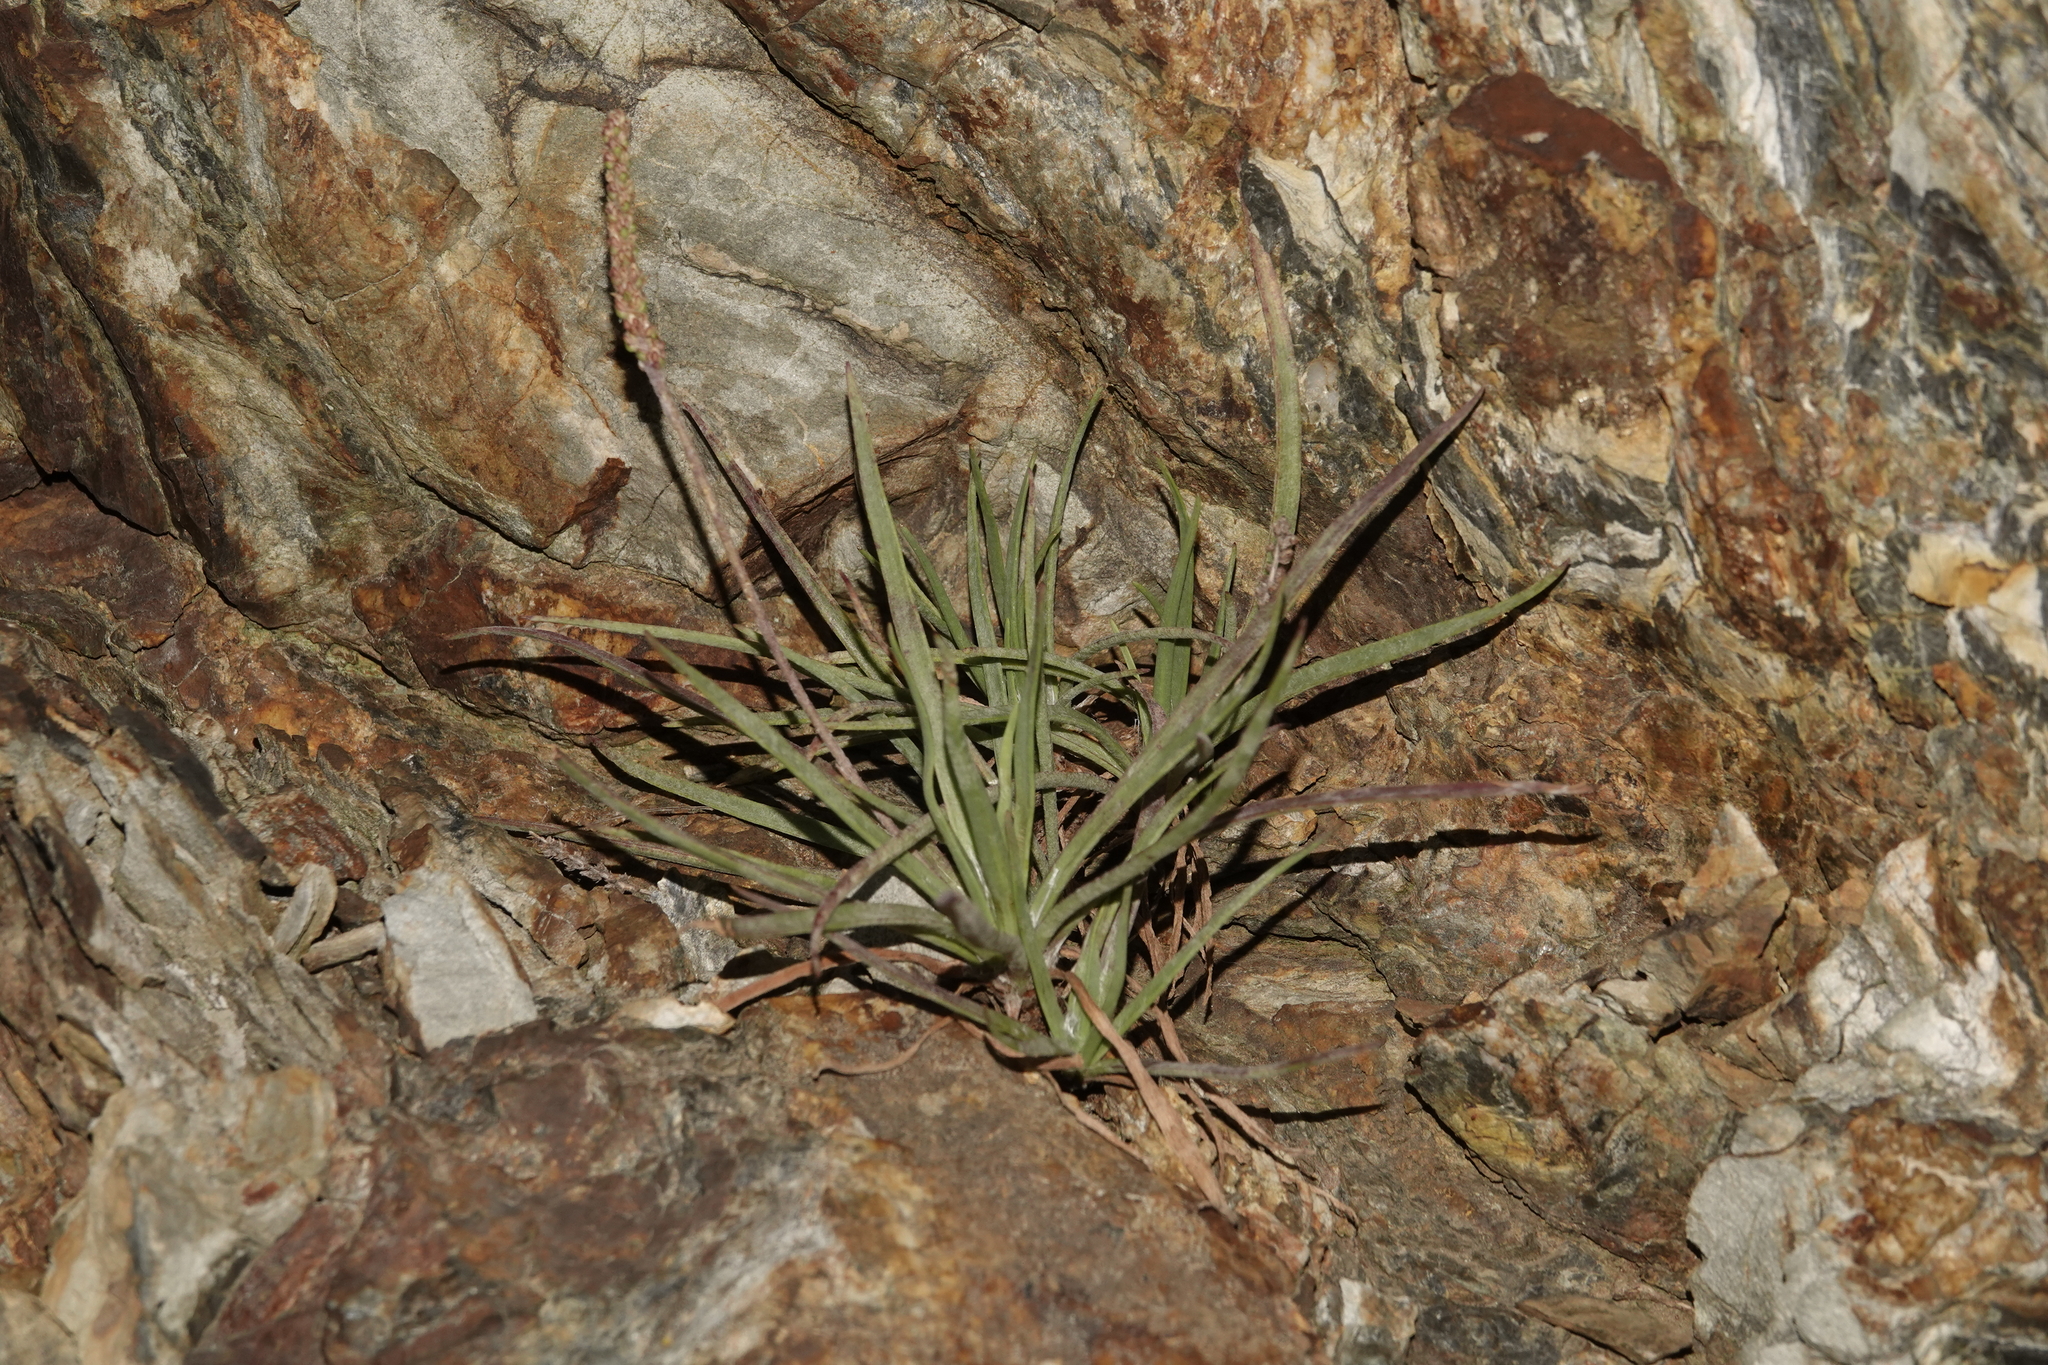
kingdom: Plantae
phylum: Tracheophyta
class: Magnoliopsida
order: Lamiales
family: Plantaginaceae
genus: Plantago
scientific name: Plantago maritima
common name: Sea plantain
